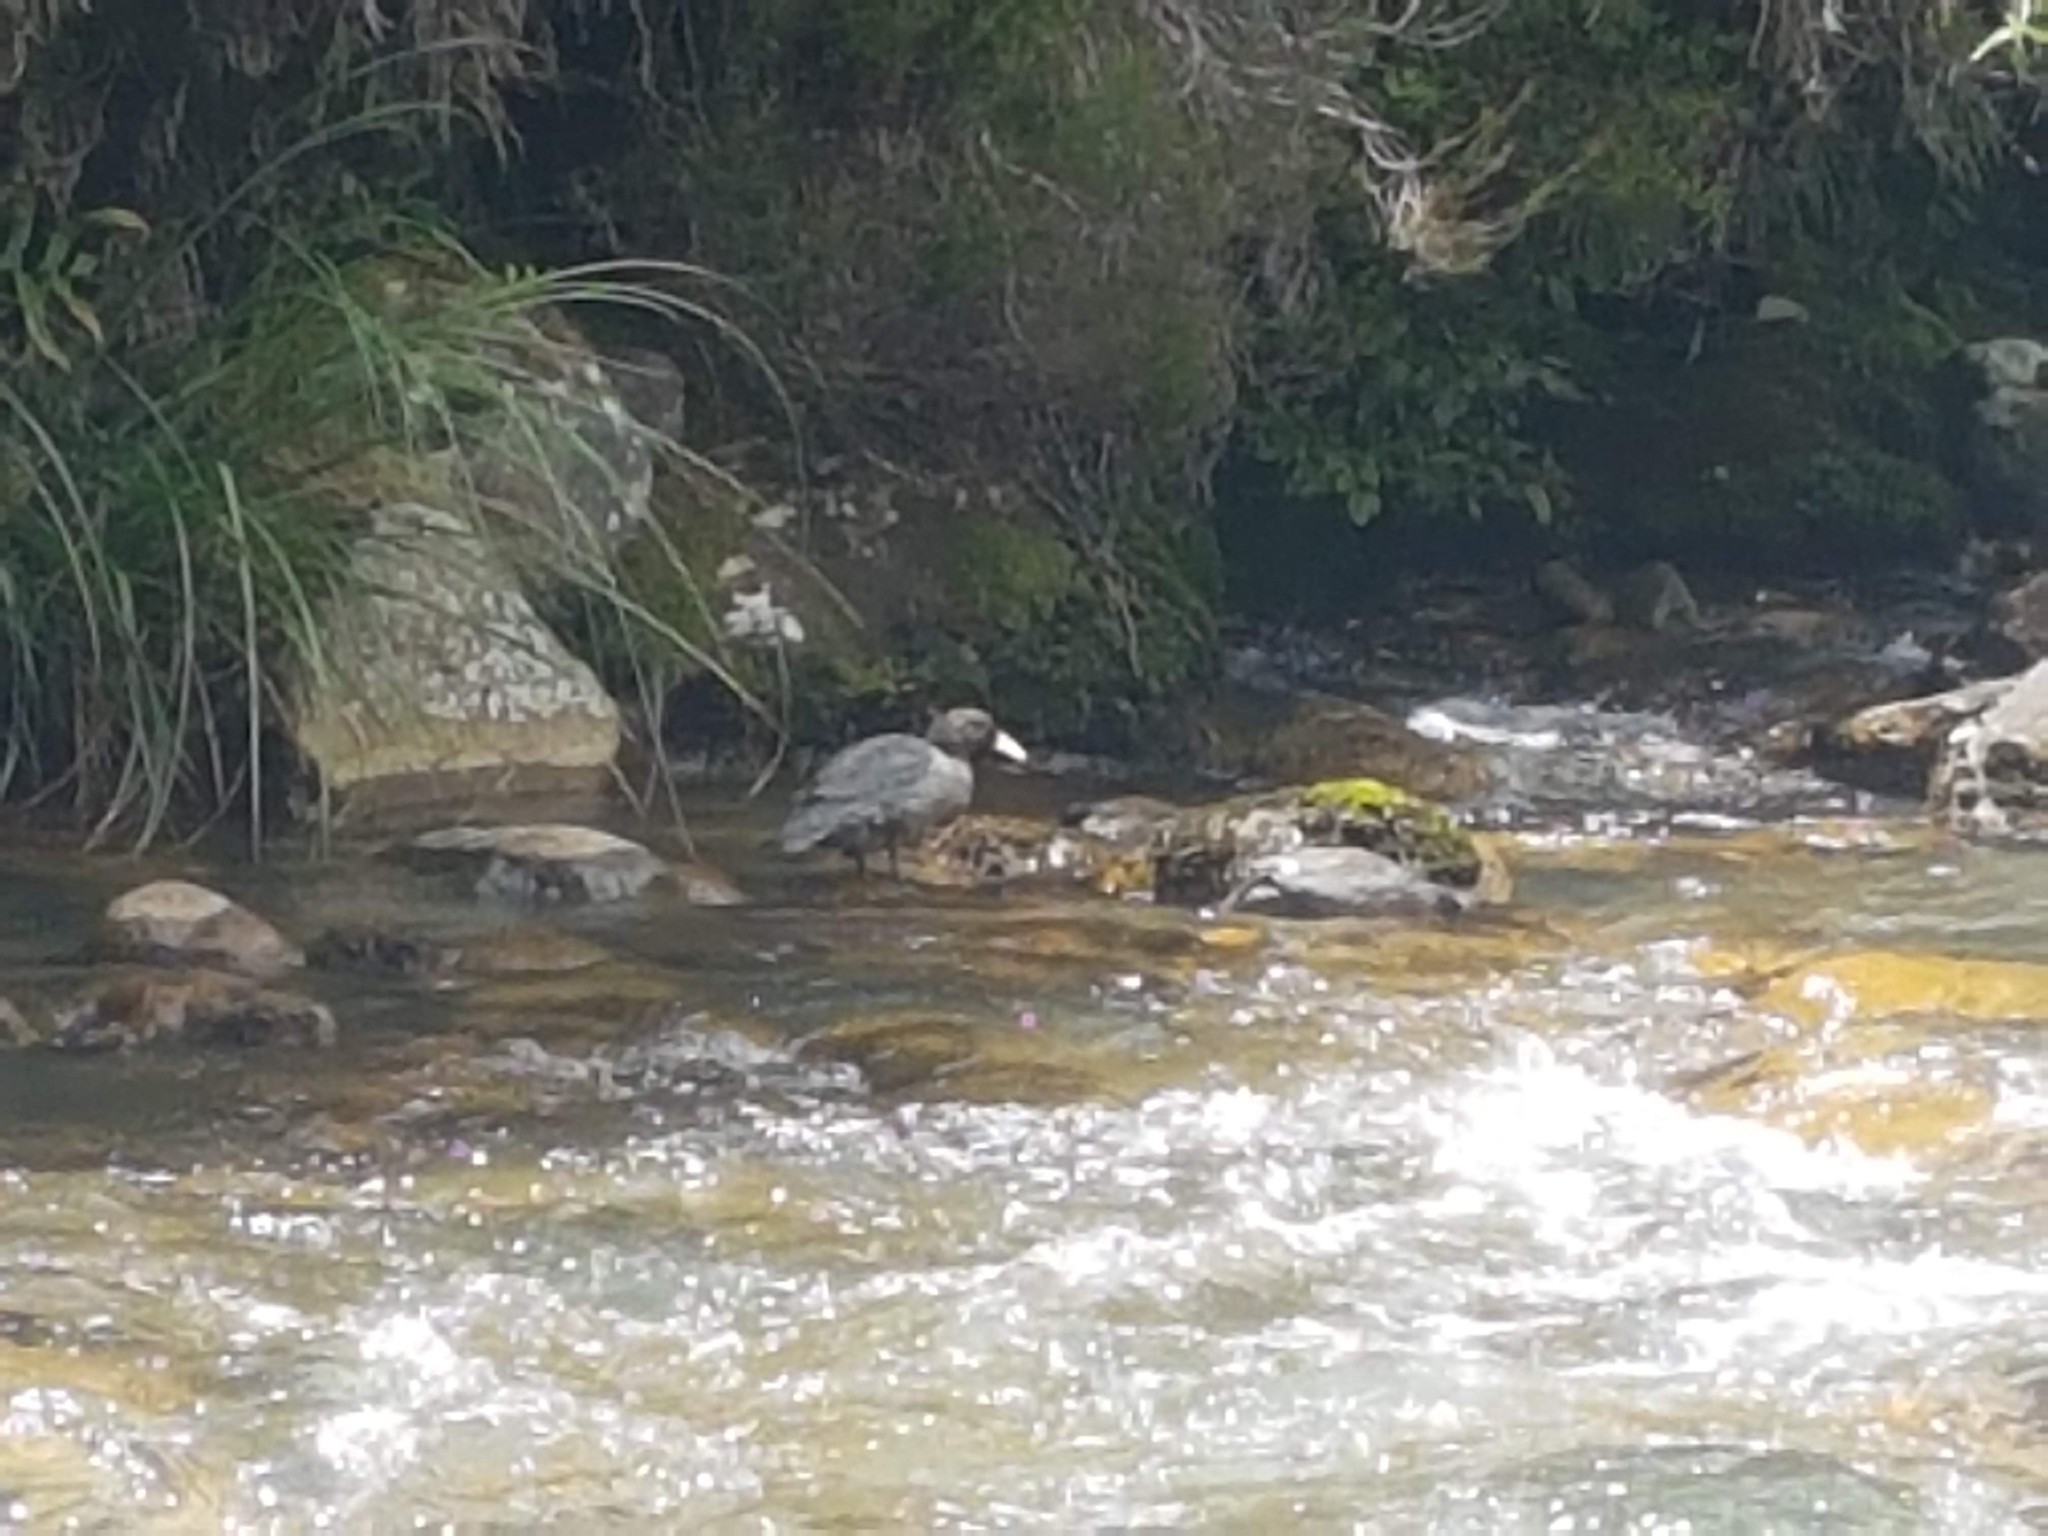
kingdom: Animalia
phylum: Chordata
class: Aves
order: Anseriformes
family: Anatidae
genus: Hymenolaimus
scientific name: Hymenolaimus malacorhynchos
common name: Blue duck
